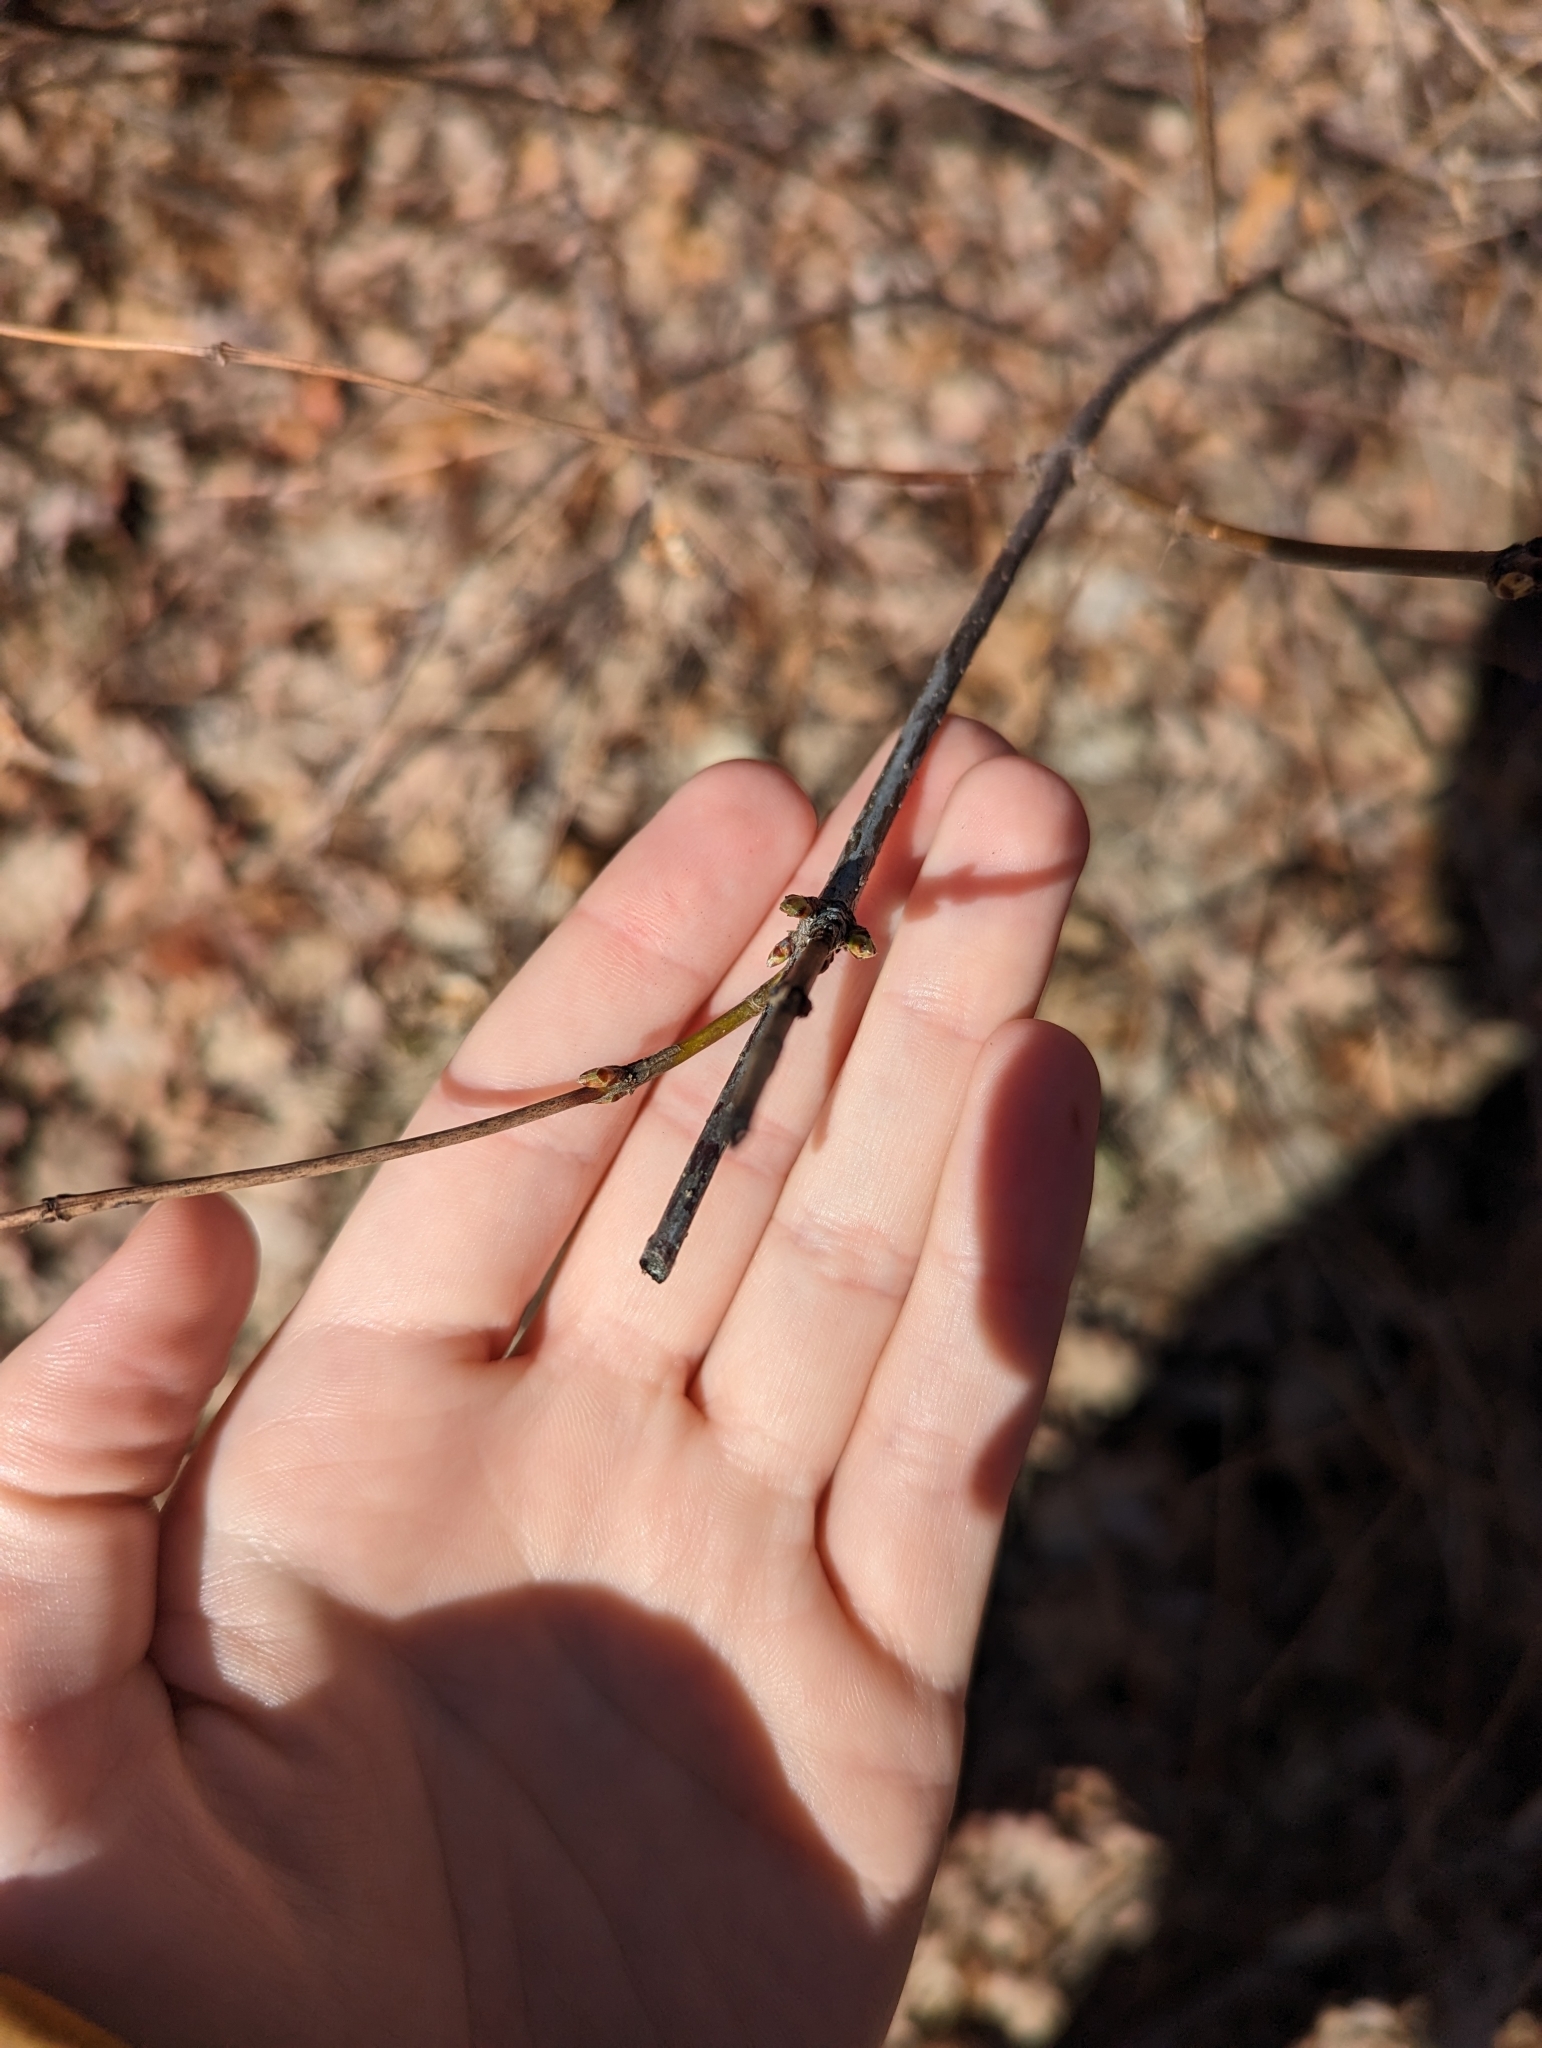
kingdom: Plantae
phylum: Tracheophyta
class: Magnoliopsida
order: Rosales
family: Rosaceae
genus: Rhodotypos
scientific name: Rhodotypos scandens
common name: Jetbead
